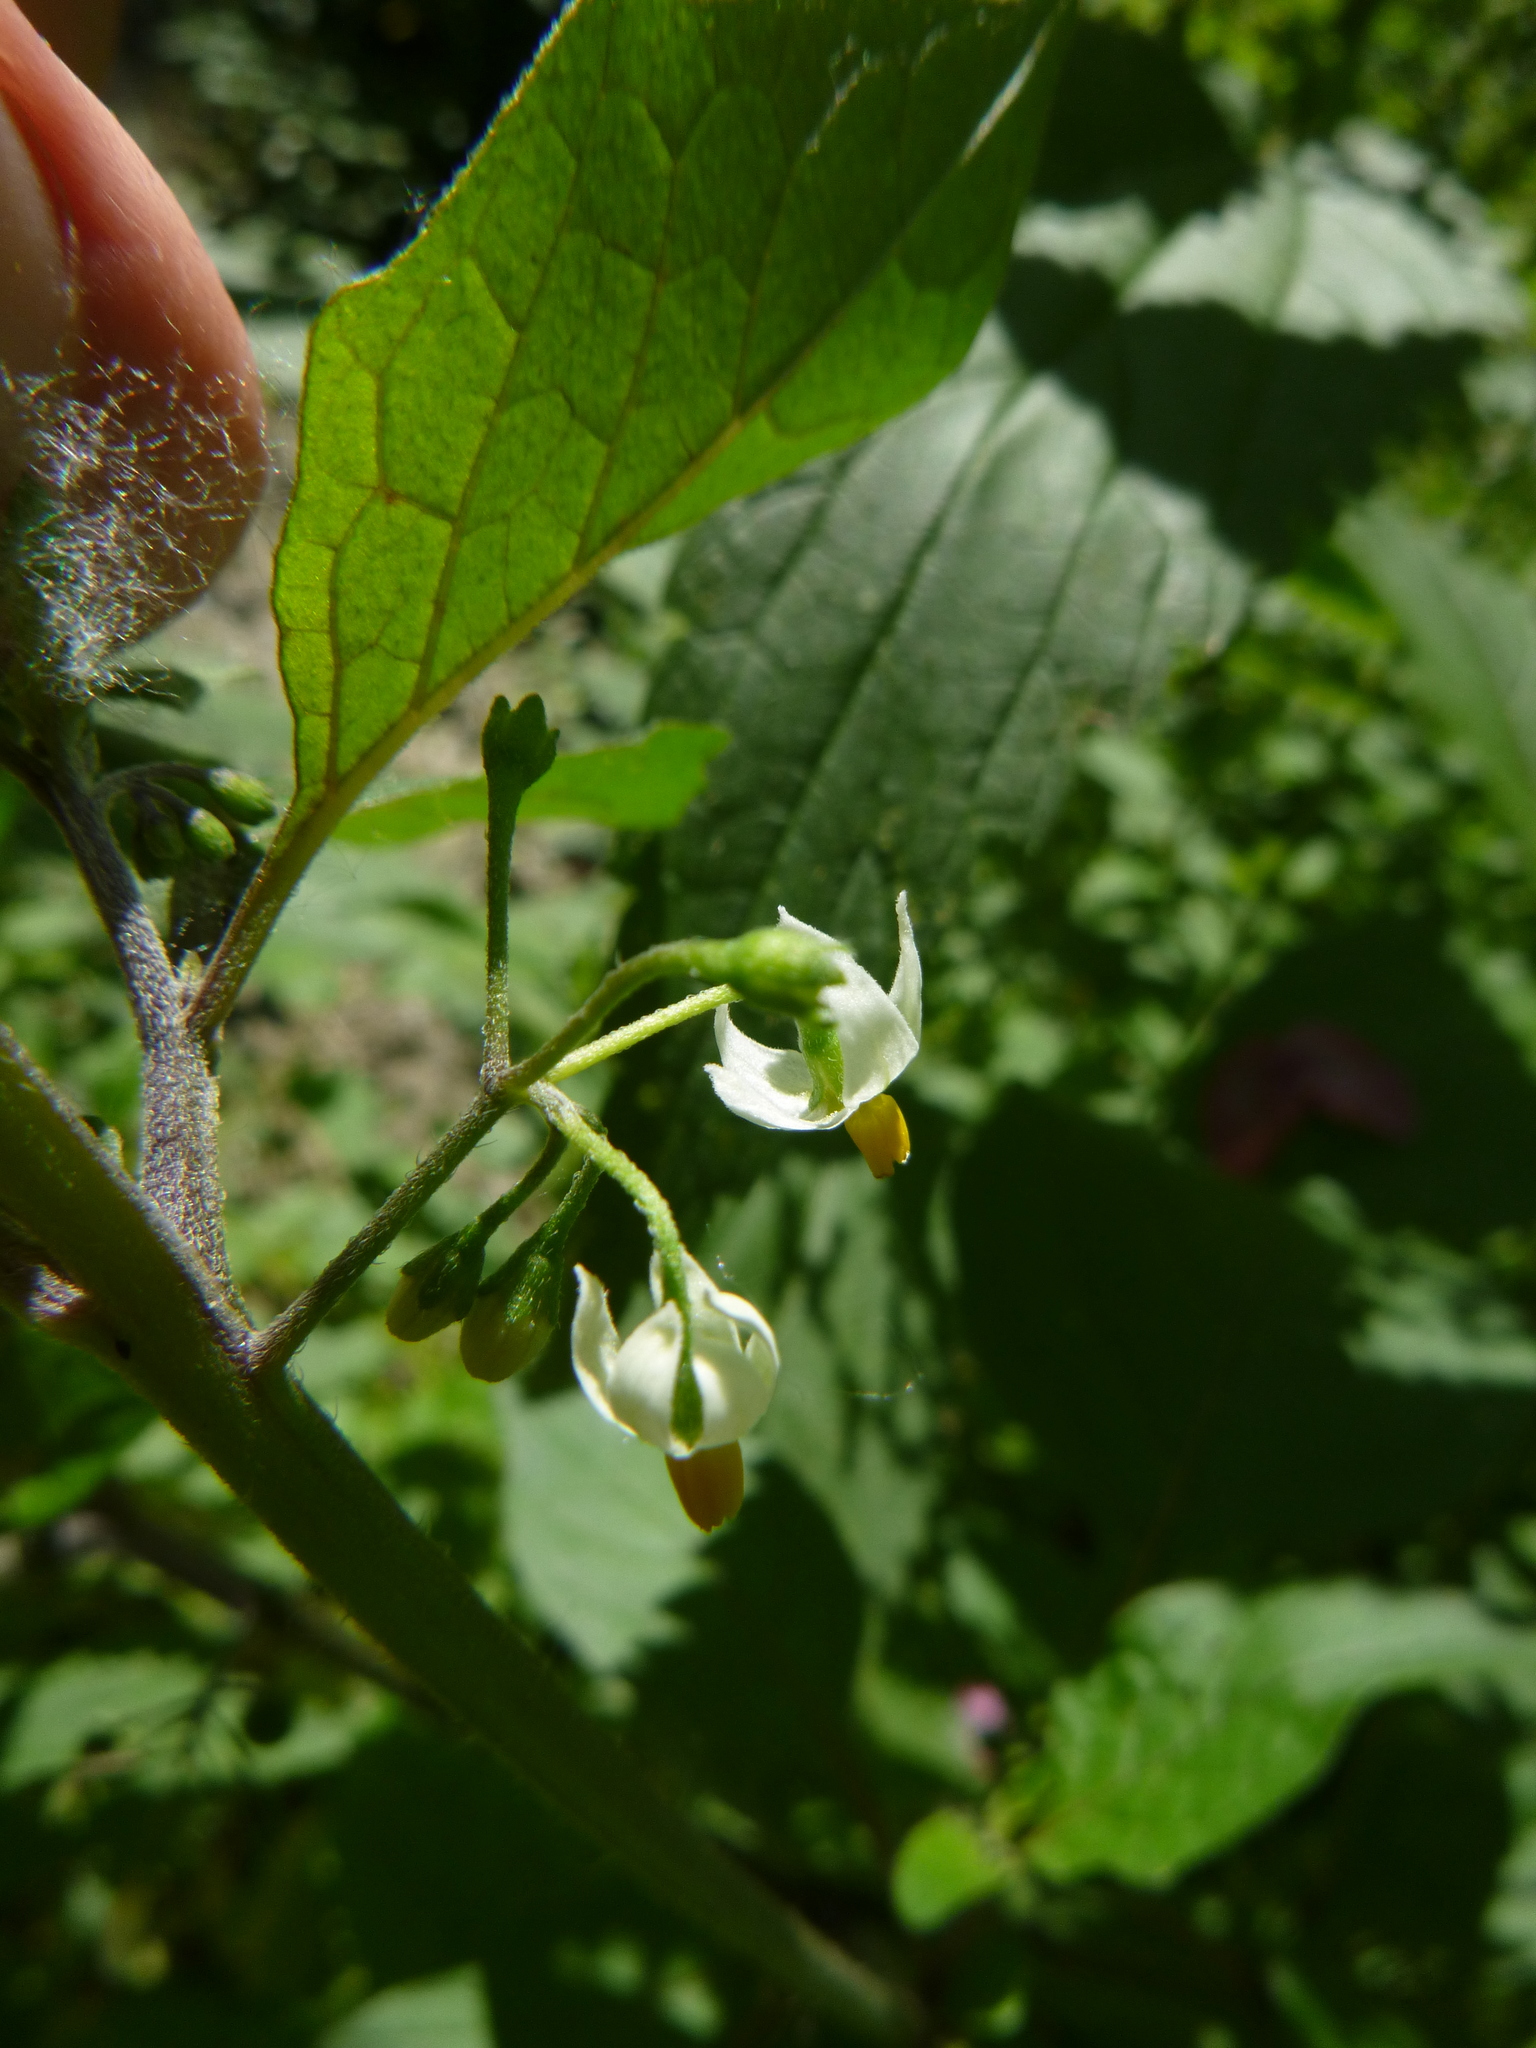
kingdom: Plantae
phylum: Tracheophyta
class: Magnoliopsida
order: Solanales
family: Solanaceae
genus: Solanum
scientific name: Solanum nigrum
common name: Black nightshade
